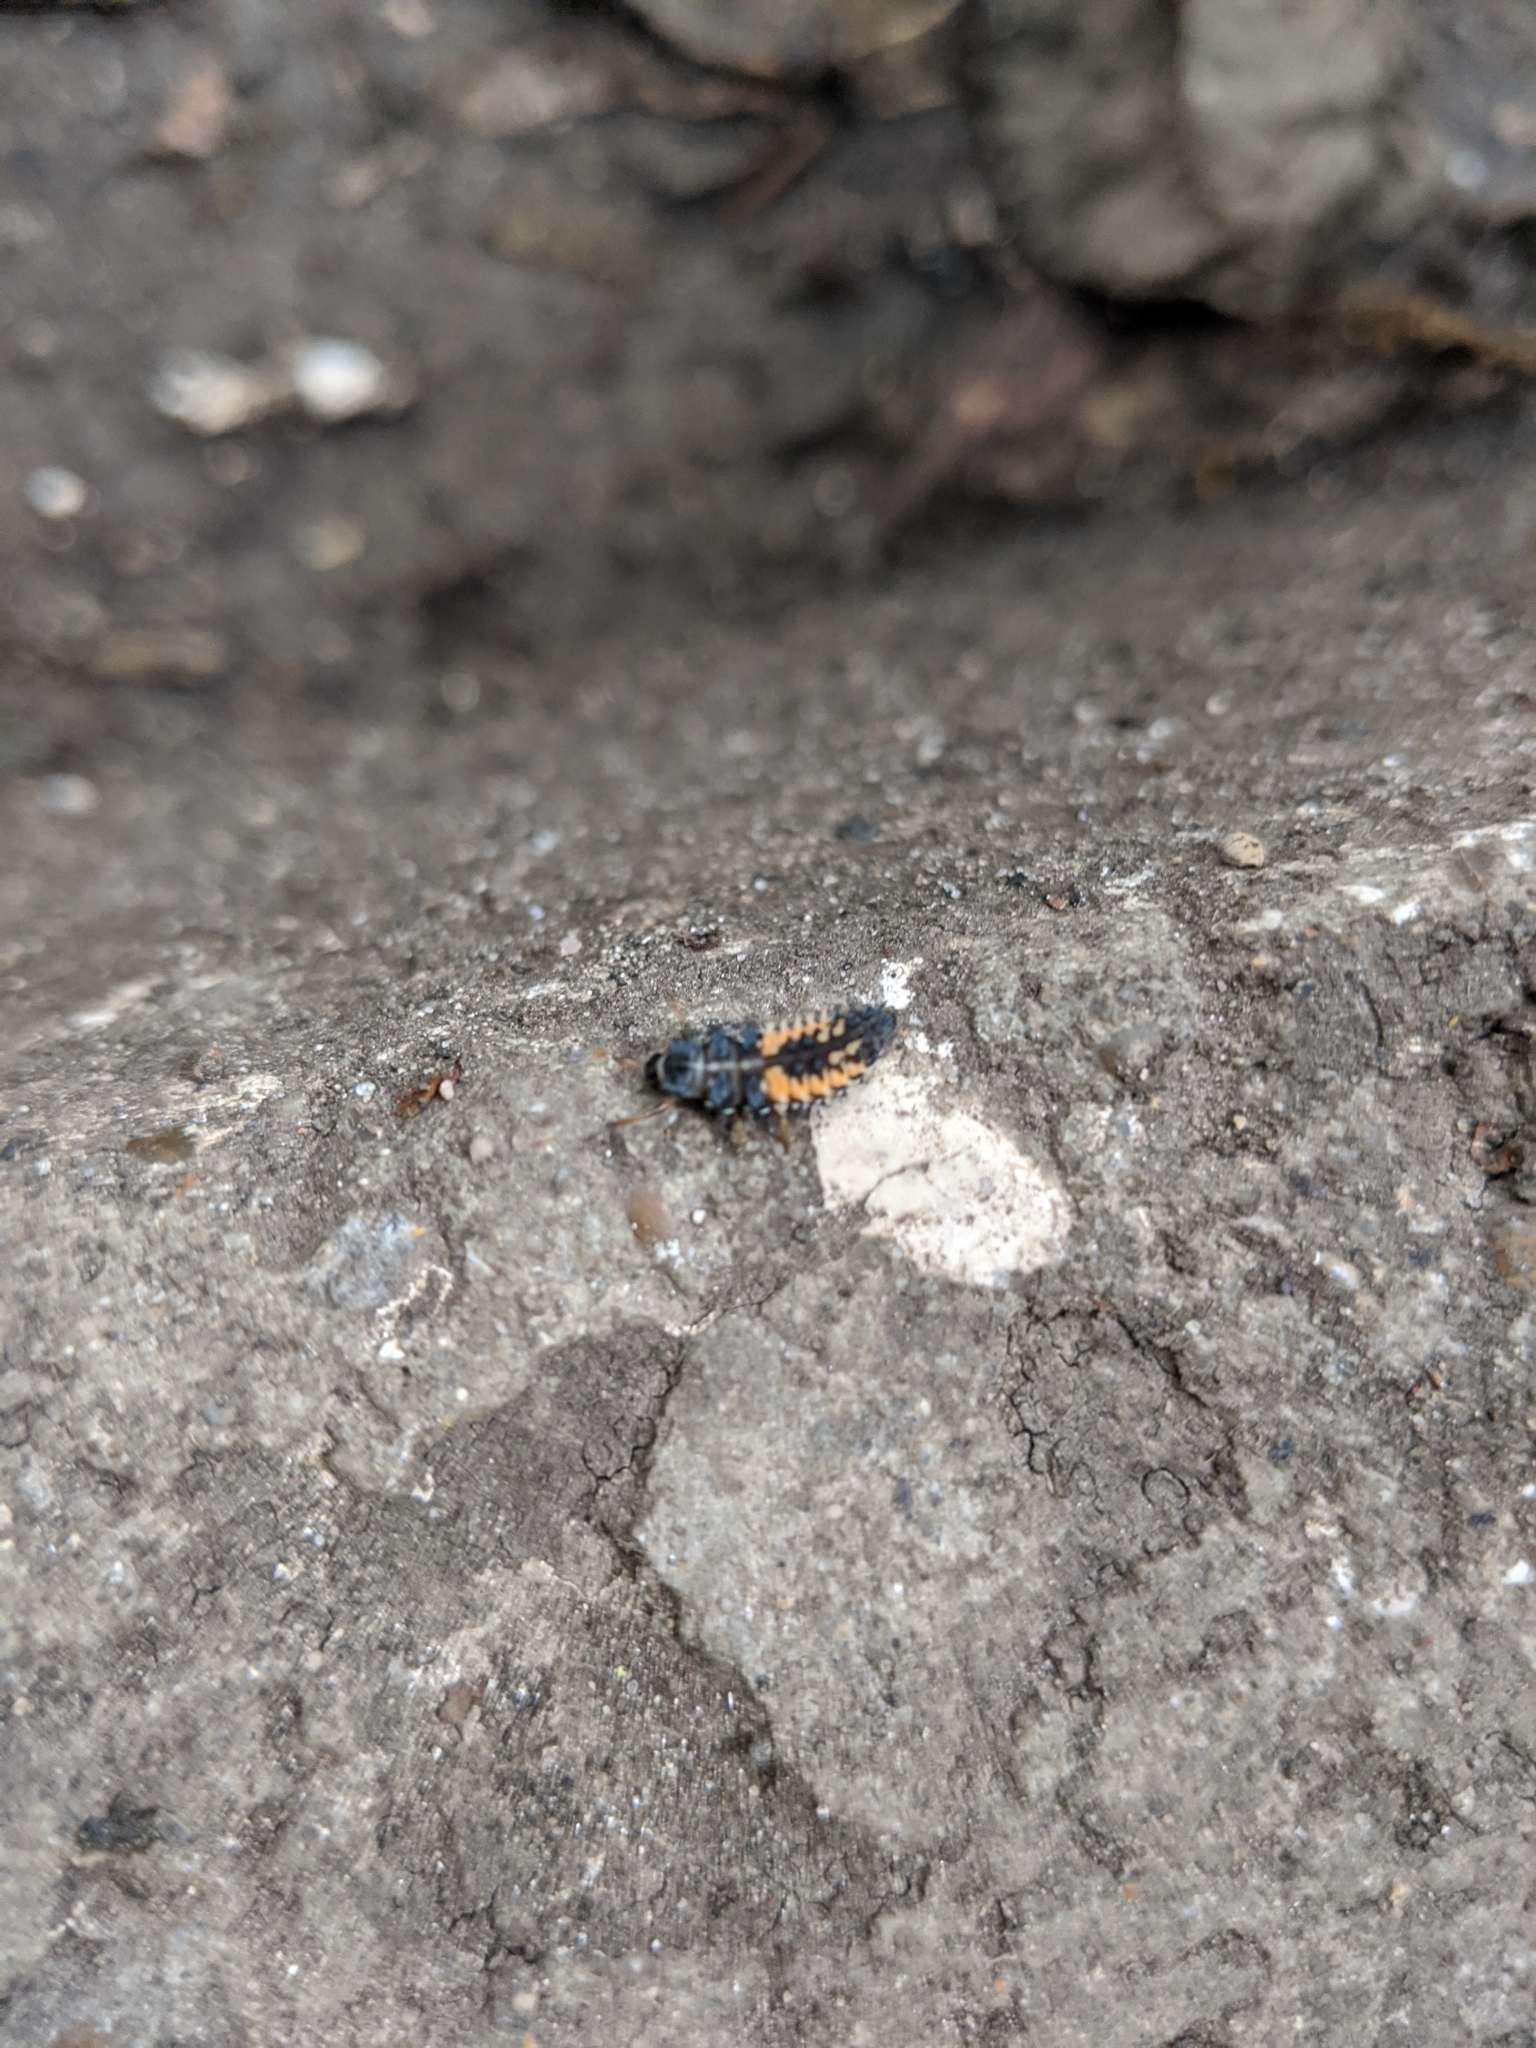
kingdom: Animalia
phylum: Arthropoda
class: Insecta
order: Coleoptera
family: Coccinellidae
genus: Harmonia
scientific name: Harmonia axyridis
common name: Harlequin ladybird
